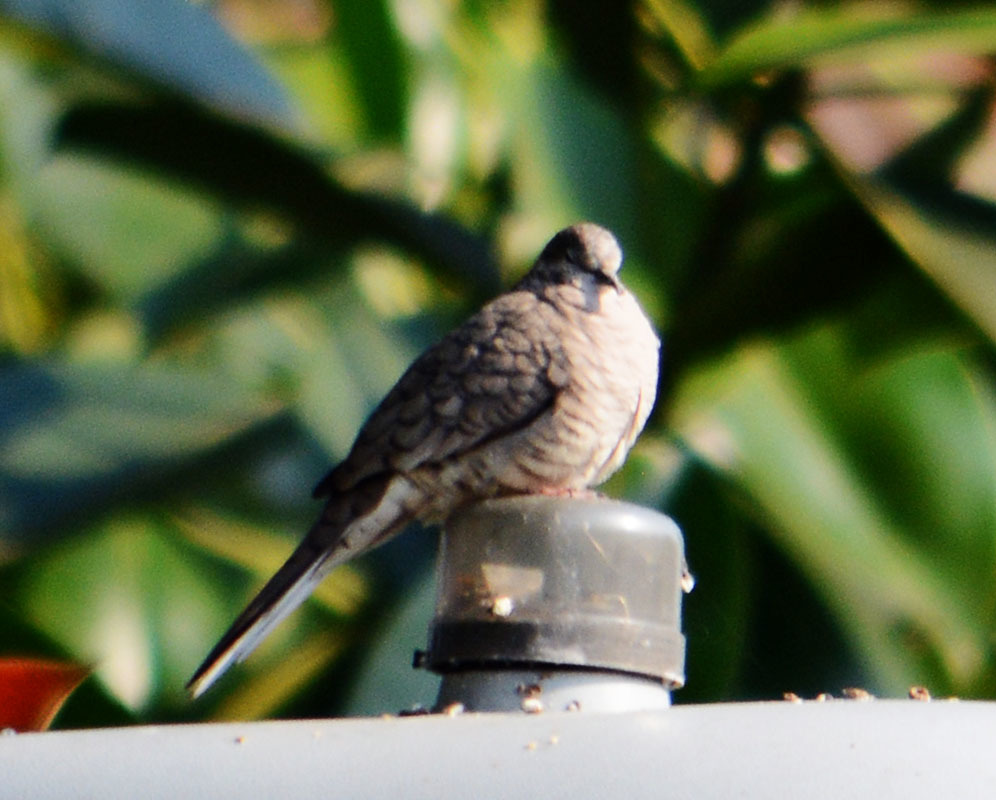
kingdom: Animalia
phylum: Chordata
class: Aves
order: Columbiformes
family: Columbidae
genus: Columbina
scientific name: Columbina inca
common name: Inca dove
